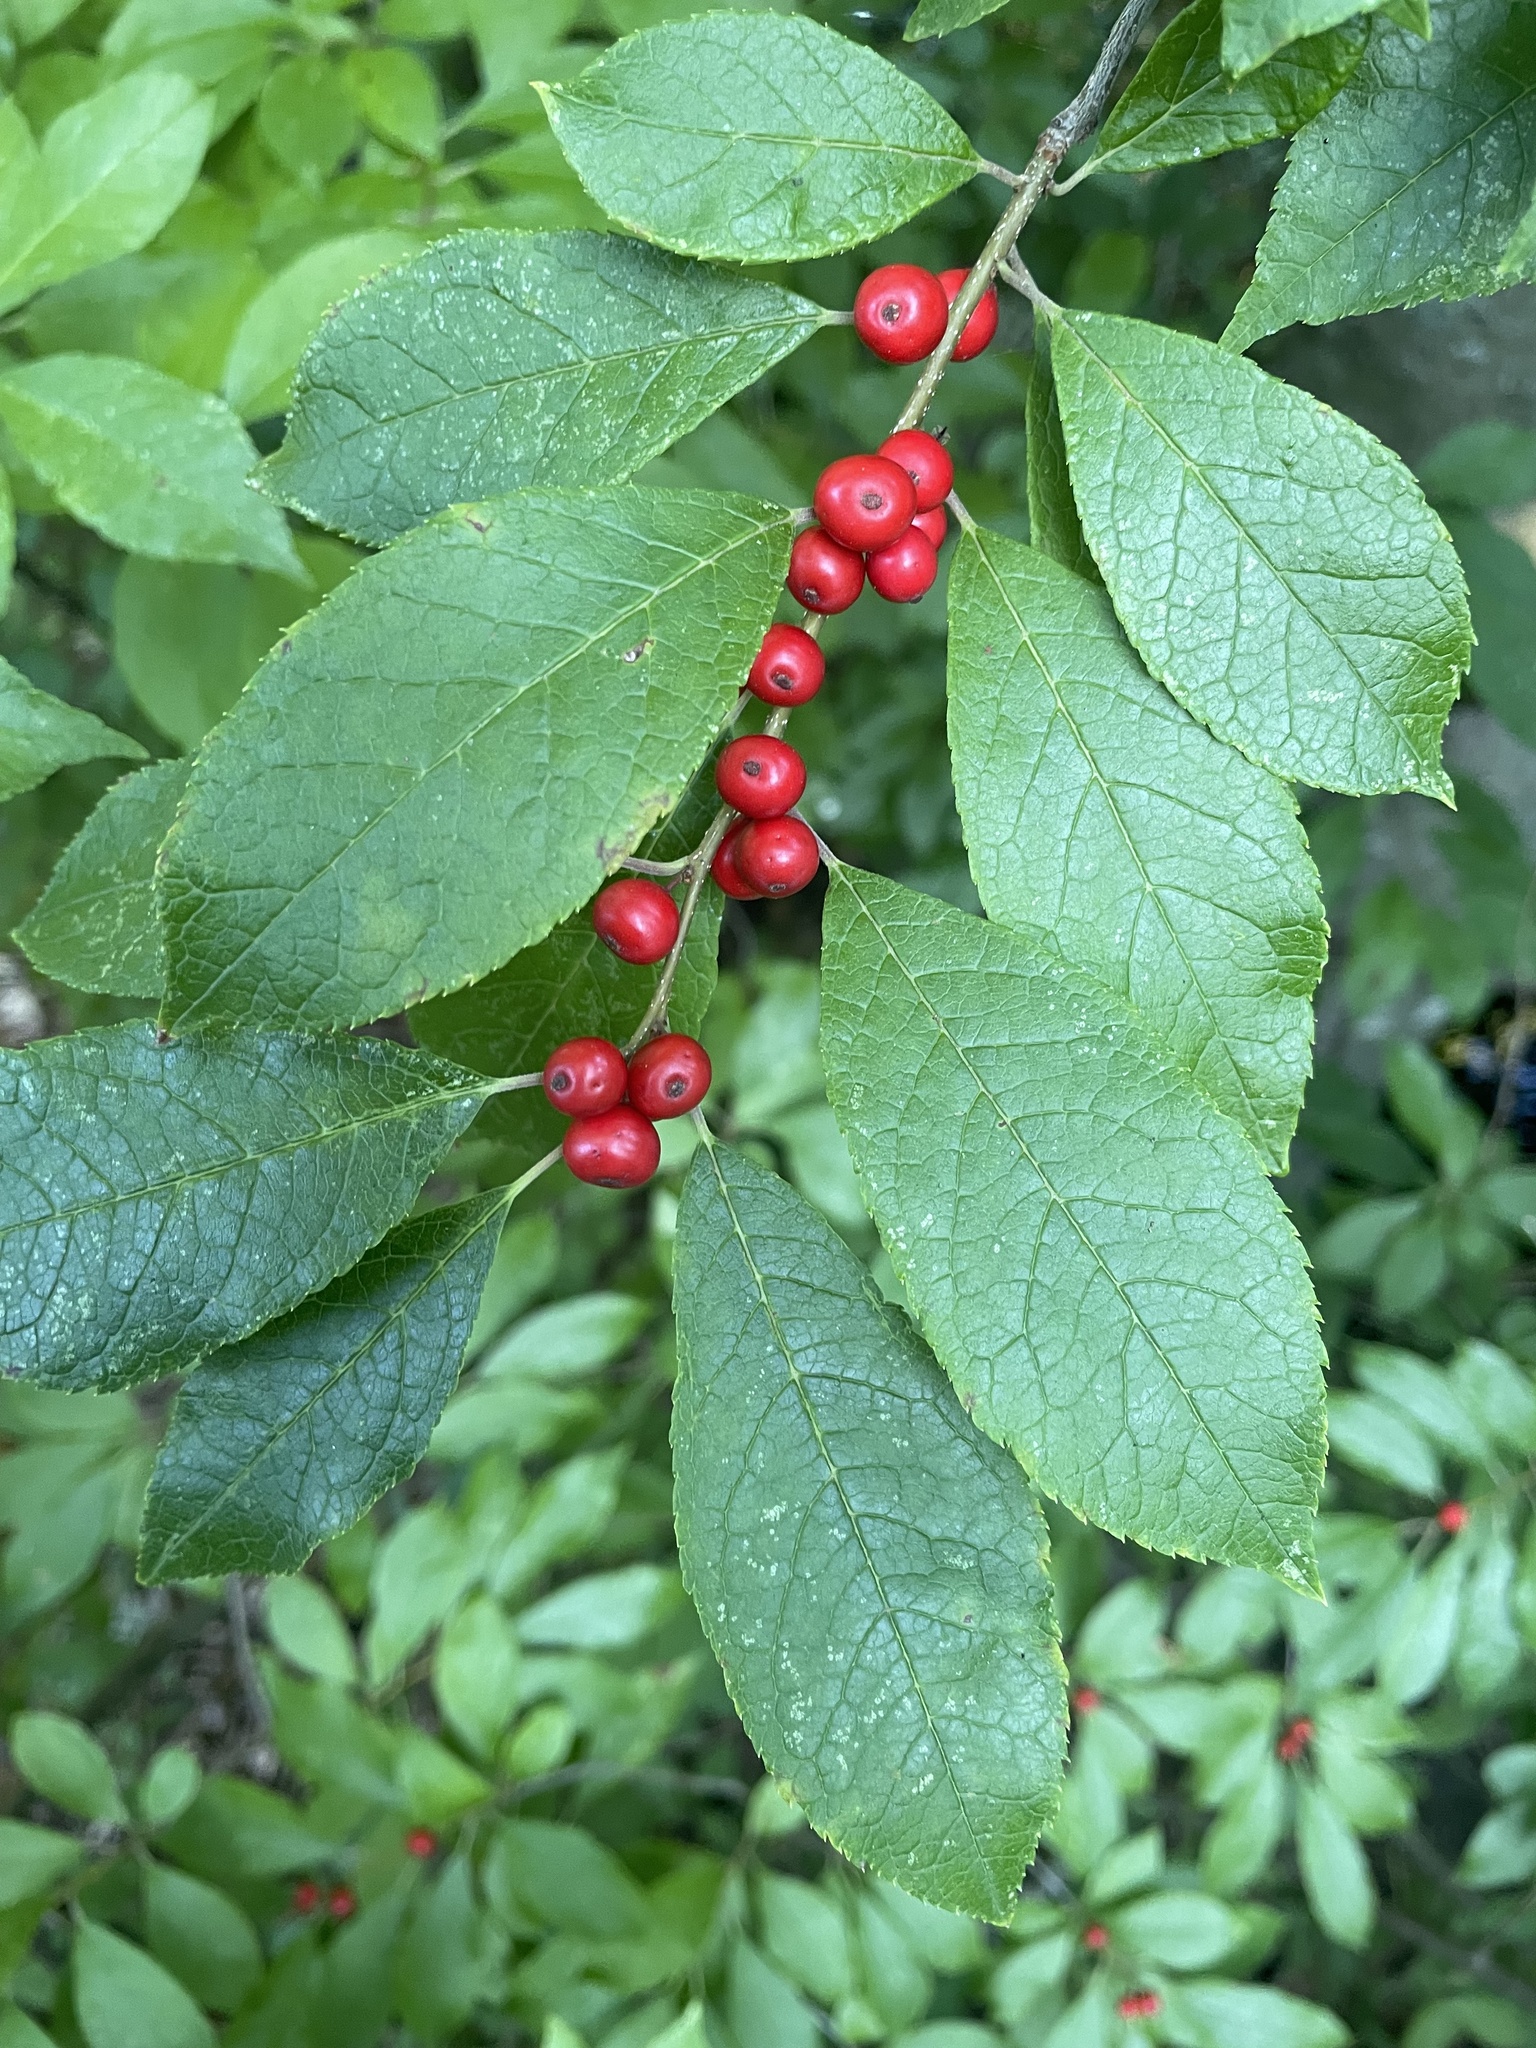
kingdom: Plantae
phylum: Tracheophyta
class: Magnoliopsida
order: Aquifoliales
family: Aquifoliaceae
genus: Ilex
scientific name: Ilex verticillata
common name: Virginia winterberry
